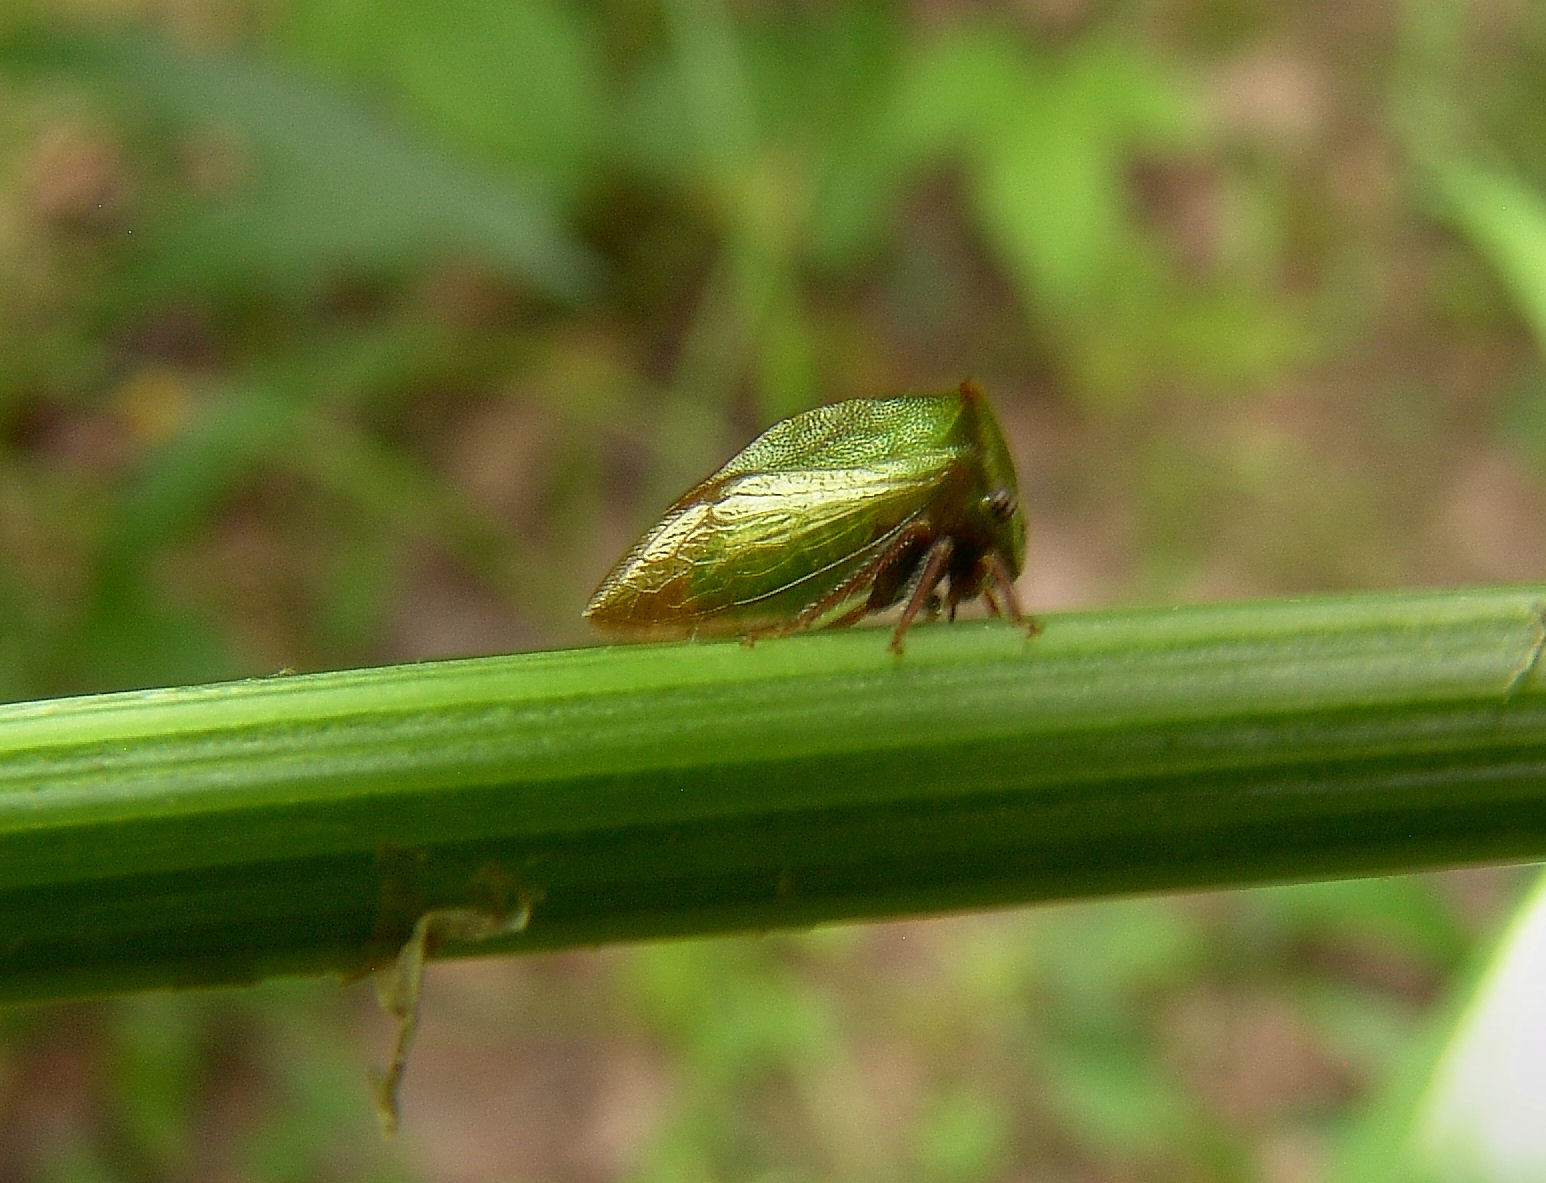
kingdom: Animalia
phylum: Arthropoda
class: Insecta
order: Hemiptera
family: Membracidae
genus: Stictocephala
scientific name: Stictocephala brevitylus
